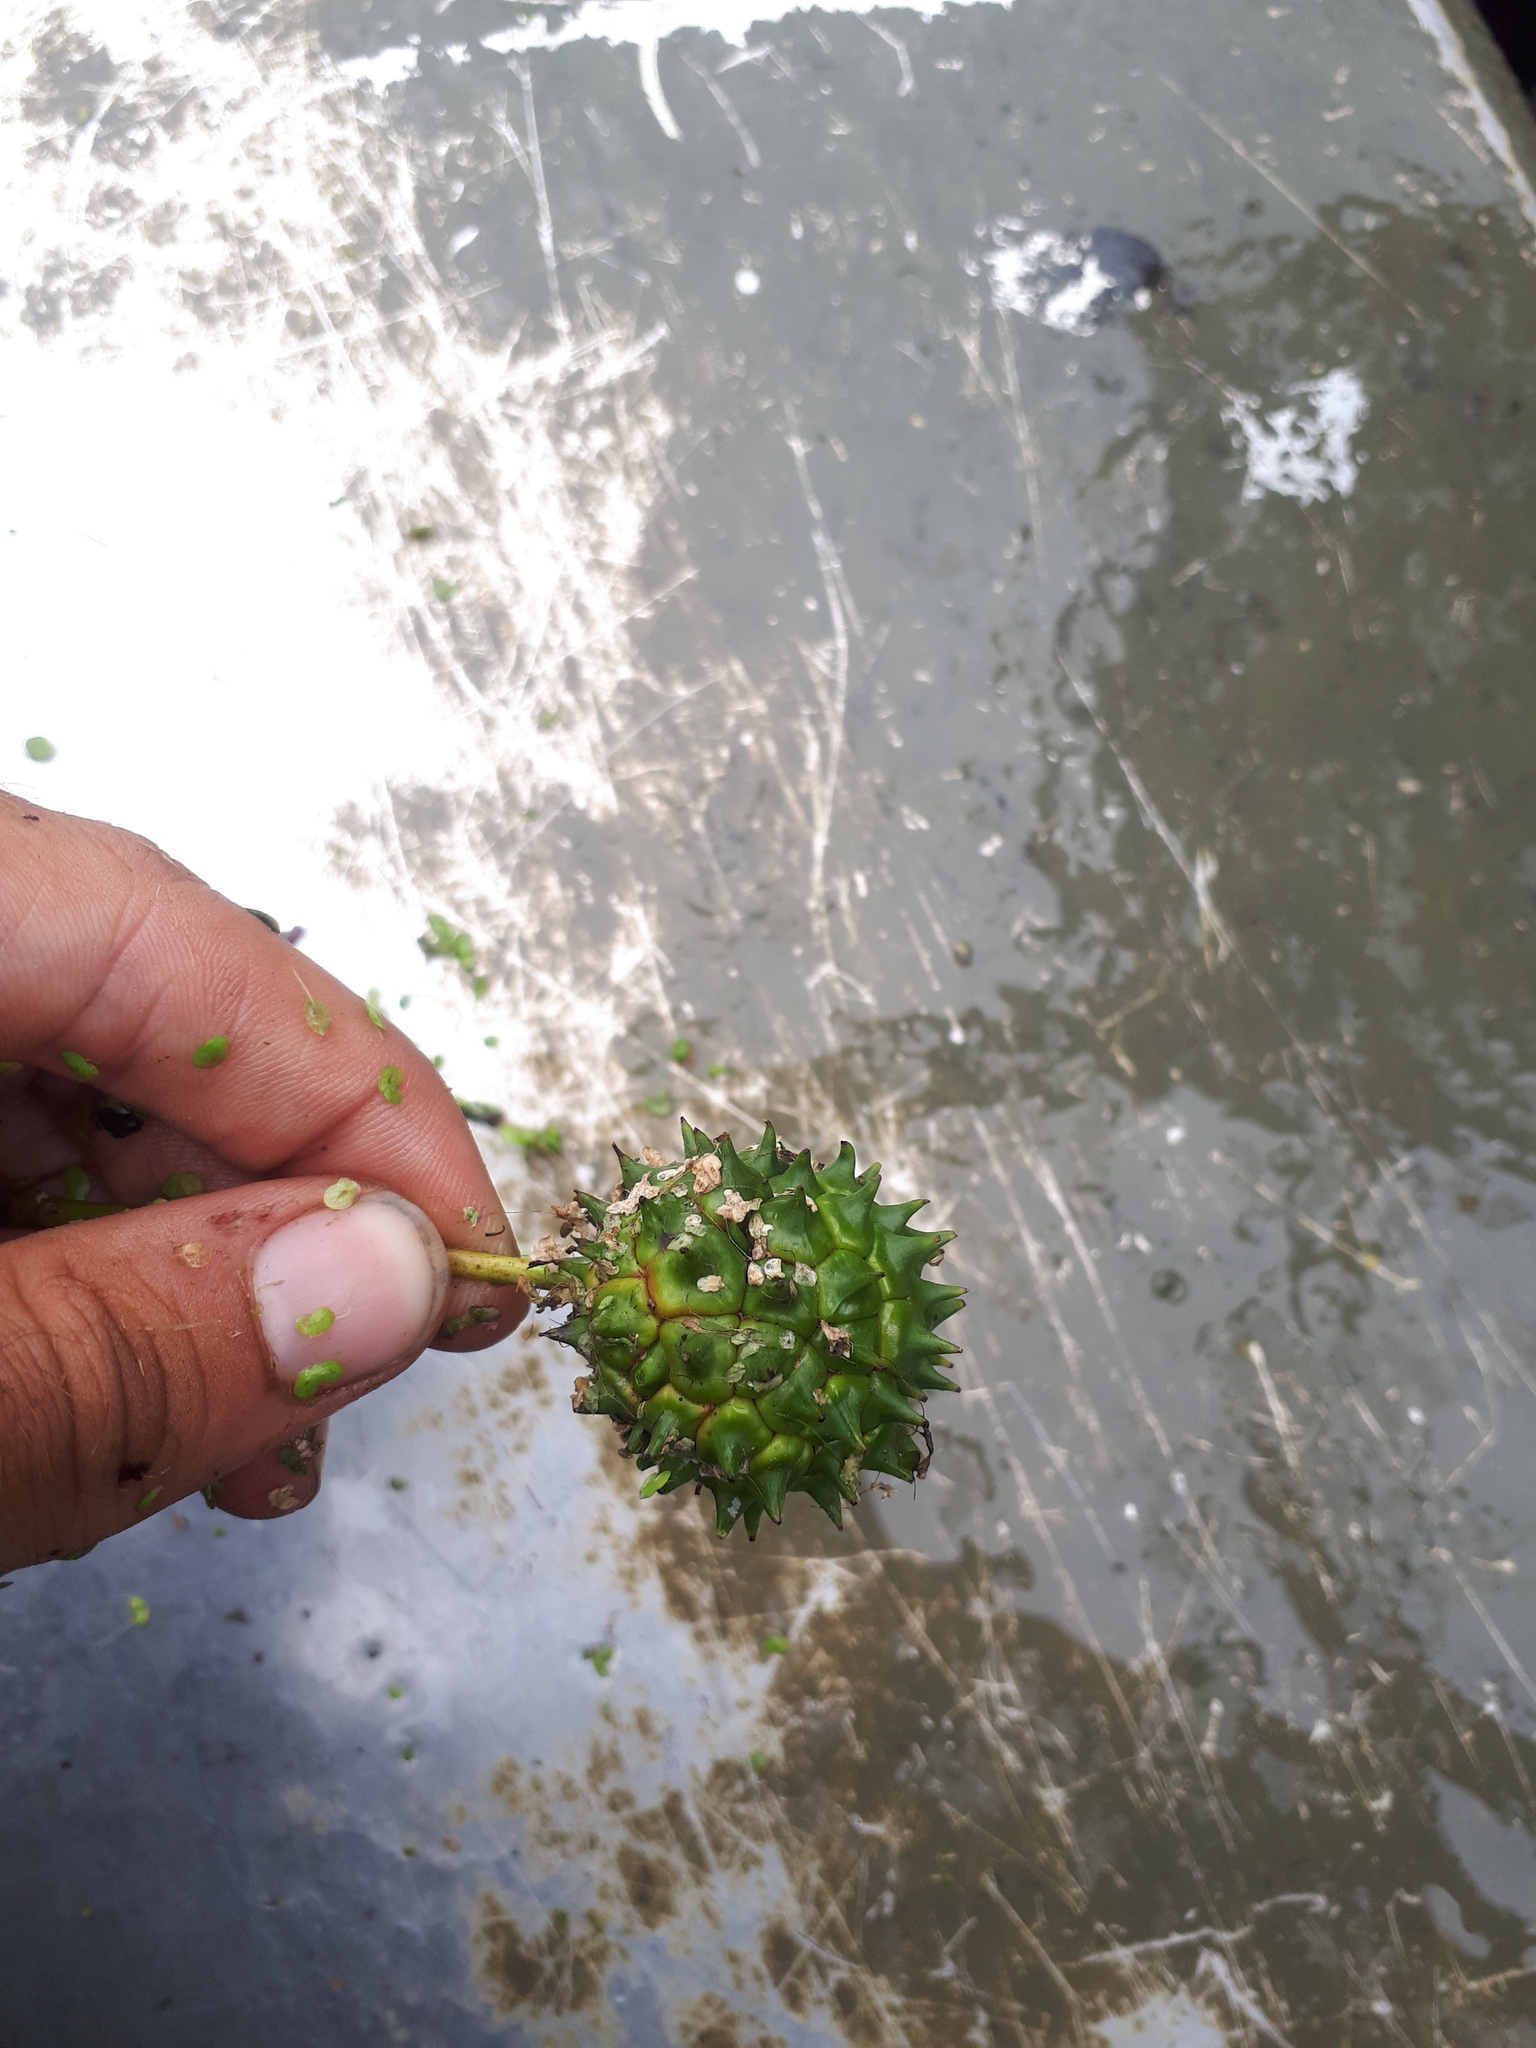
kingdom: Plantae
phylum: Tracheophyta
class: Liliopsida
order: Poales
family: Typhaceae
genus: Sparganium
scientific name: Sparganium eurycarpum
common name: Broad-fruited burreed
